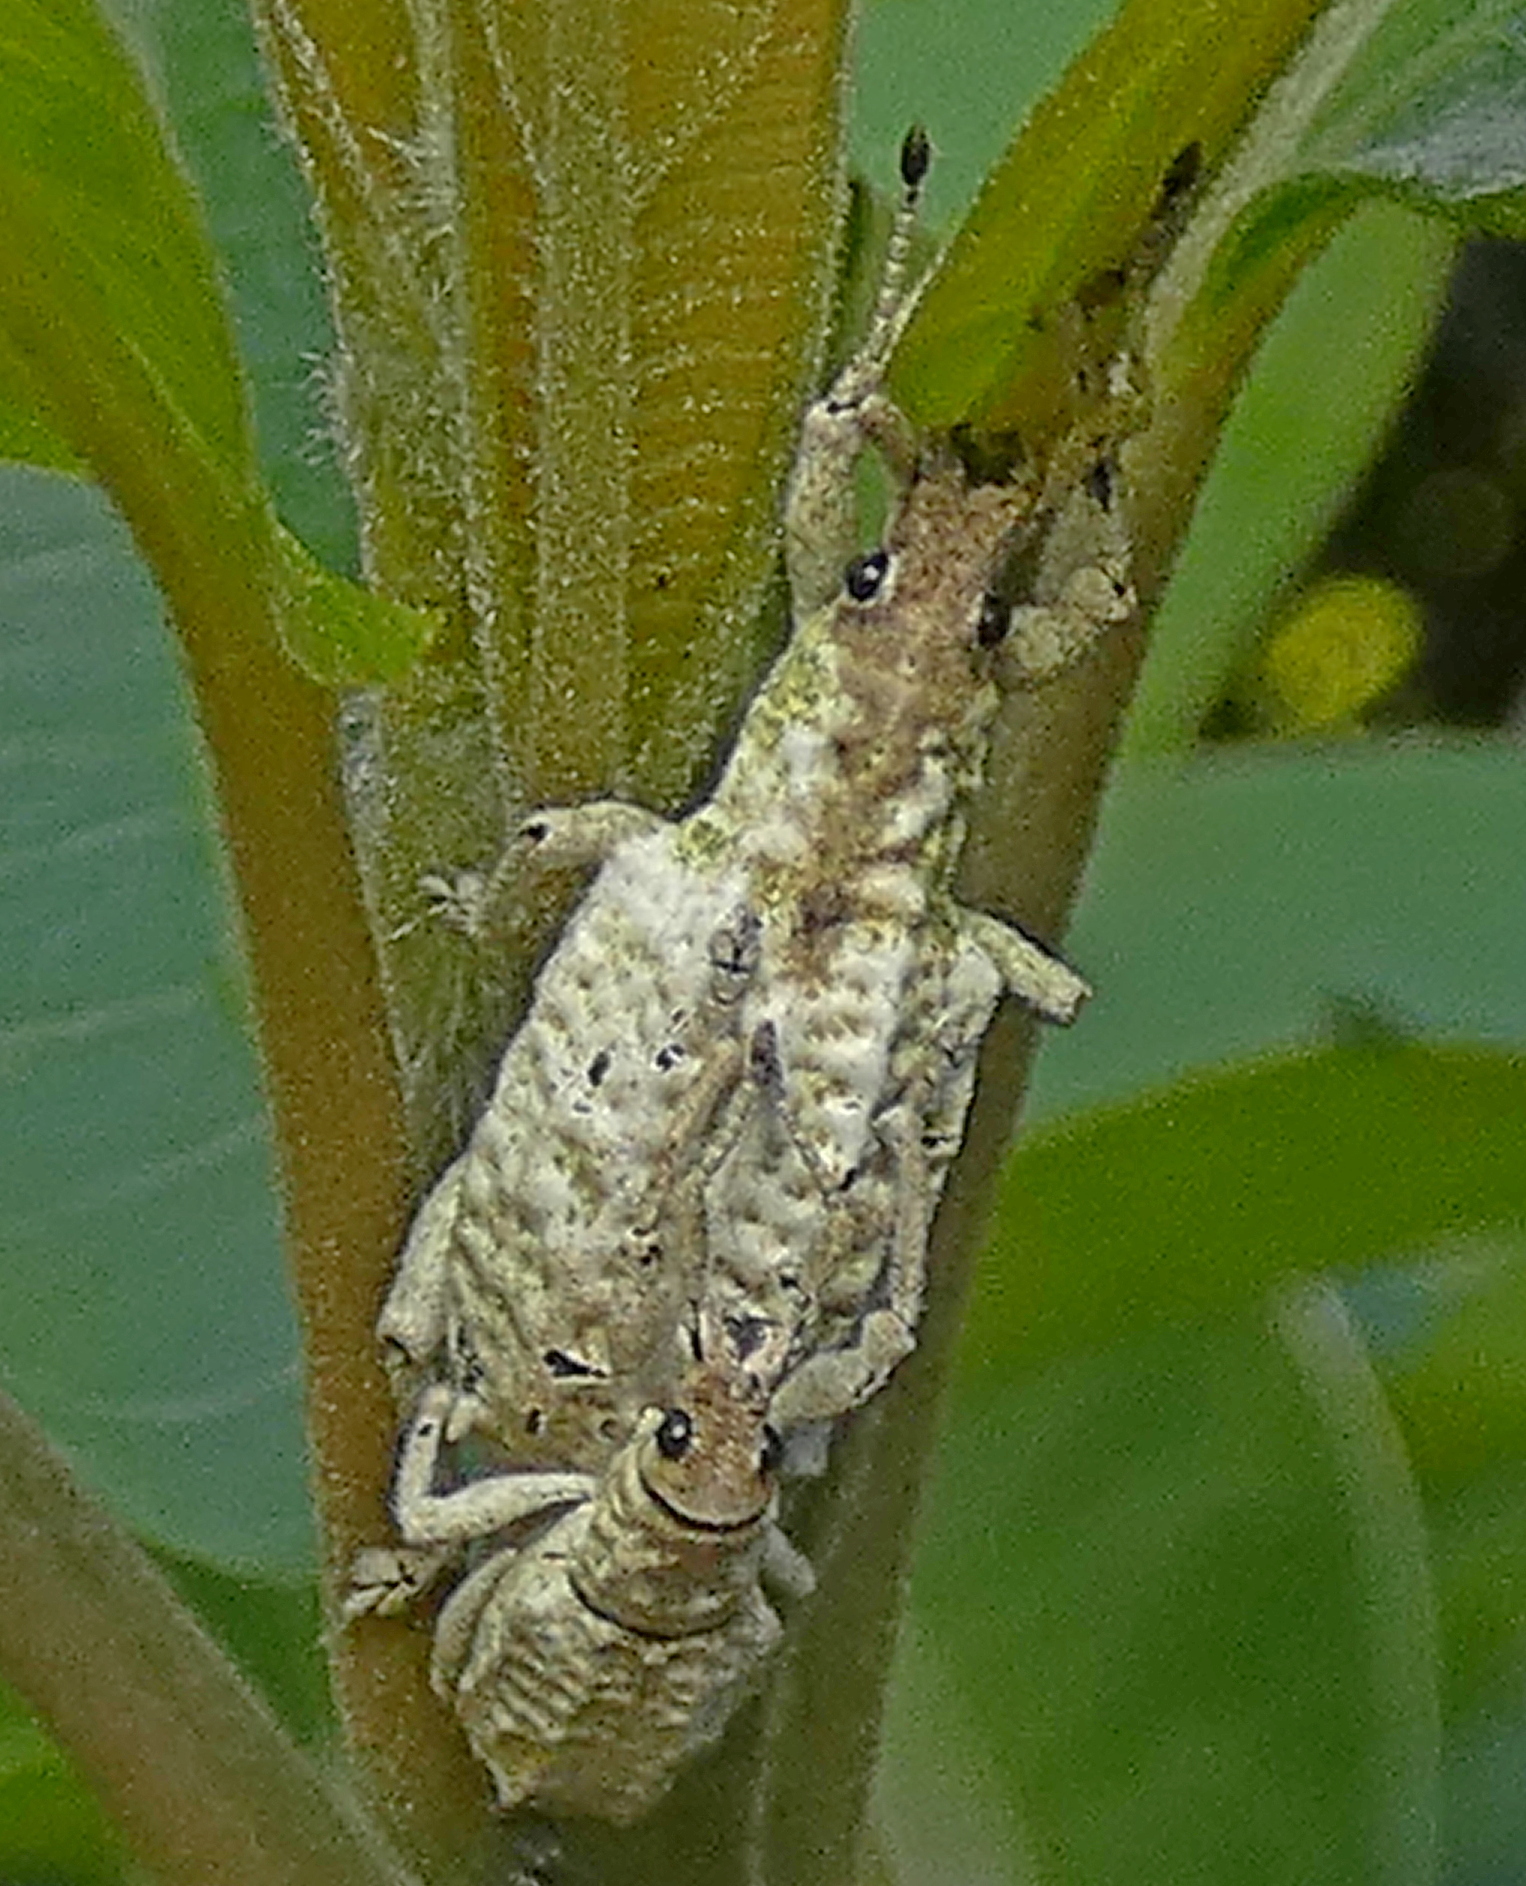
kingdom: Animalia
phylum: Arthropoda
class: Insecta
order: Coleoptera
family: Curculionidae
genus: Compsus
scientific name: Compsus niveus
